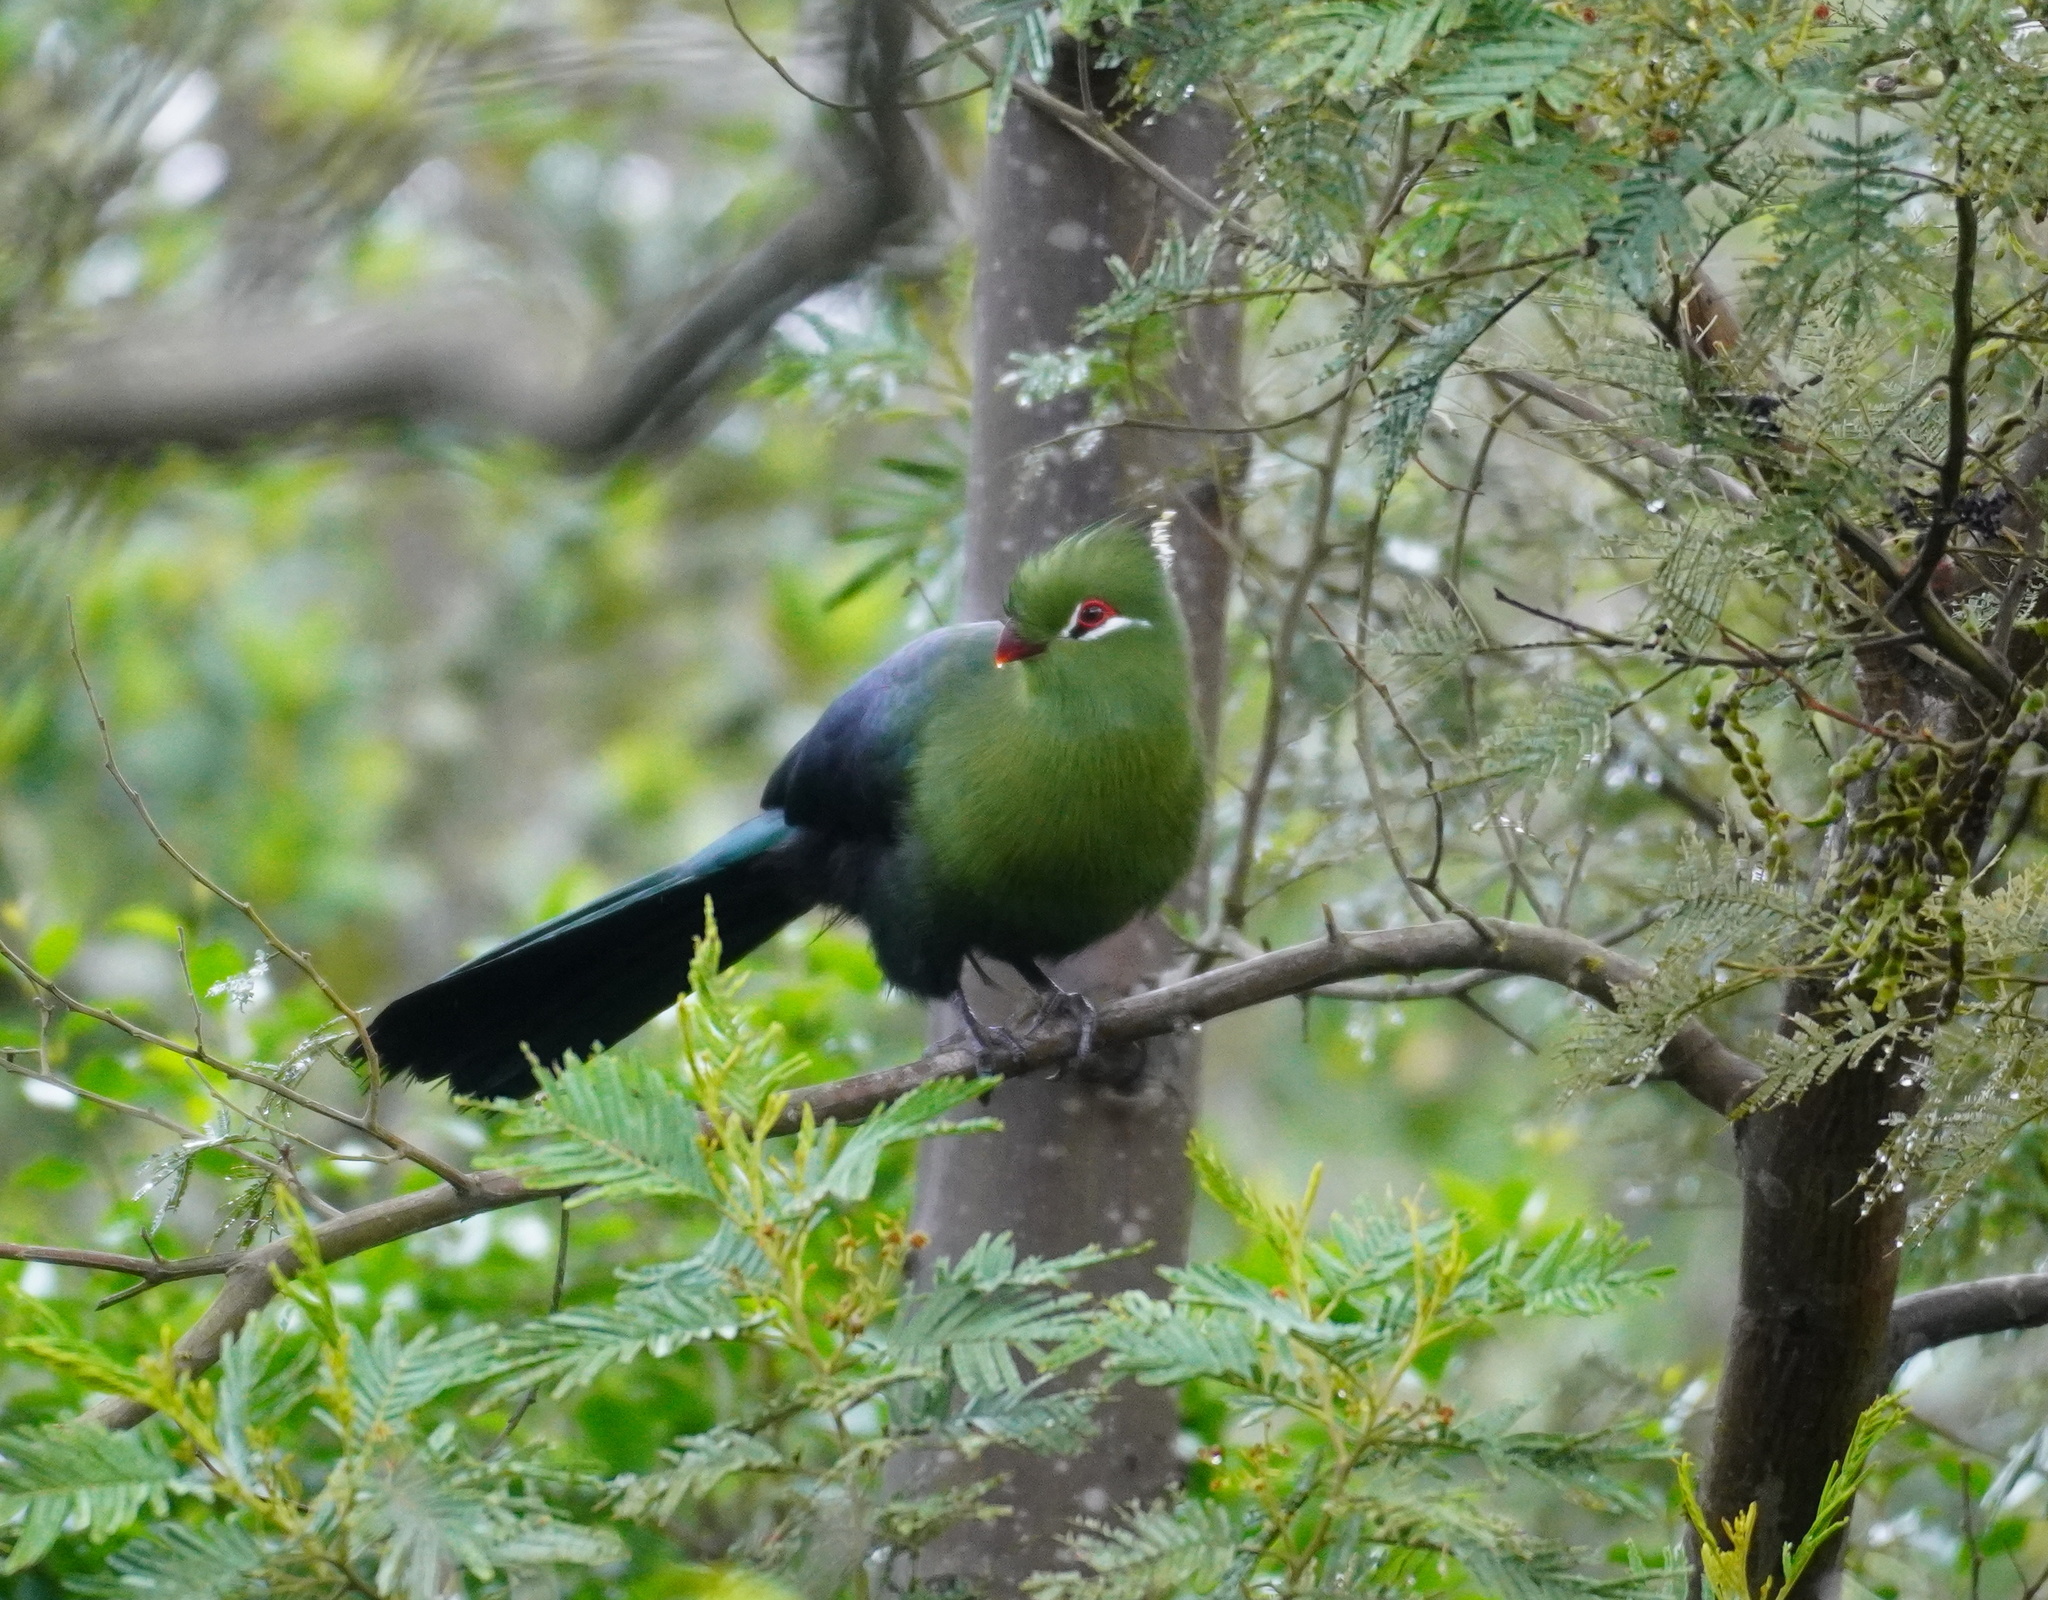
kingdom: Animalia
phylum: Chordata
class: Aves
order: Musophagiformes
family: Musophagidae
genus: Tauraco
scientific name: Tauraco corythaix
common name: Knysna turaco
